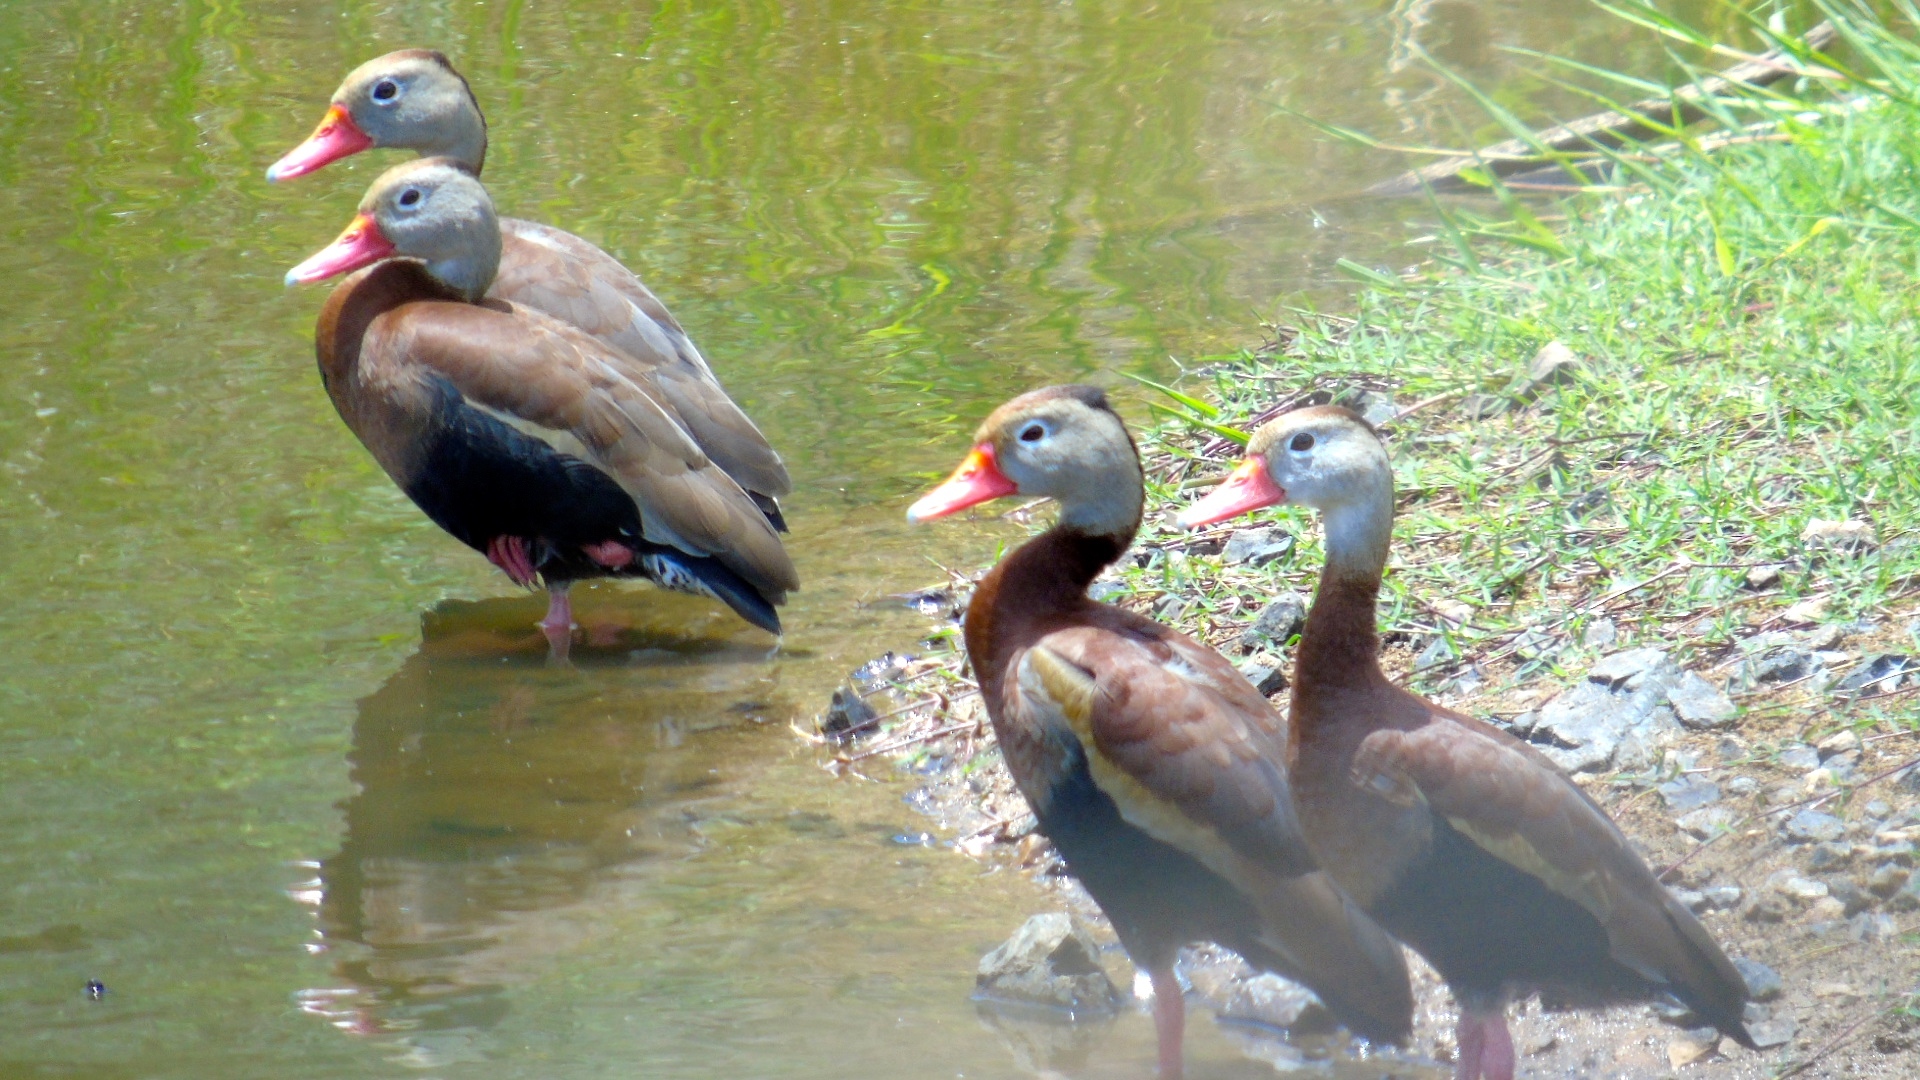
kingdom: Animalia
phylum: Chordata
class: Aves
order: Anseriformes
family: Anatidae
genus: Dendrocygna
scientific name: Dendrocygna autumnalis
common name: Black-bellied whistling duck
